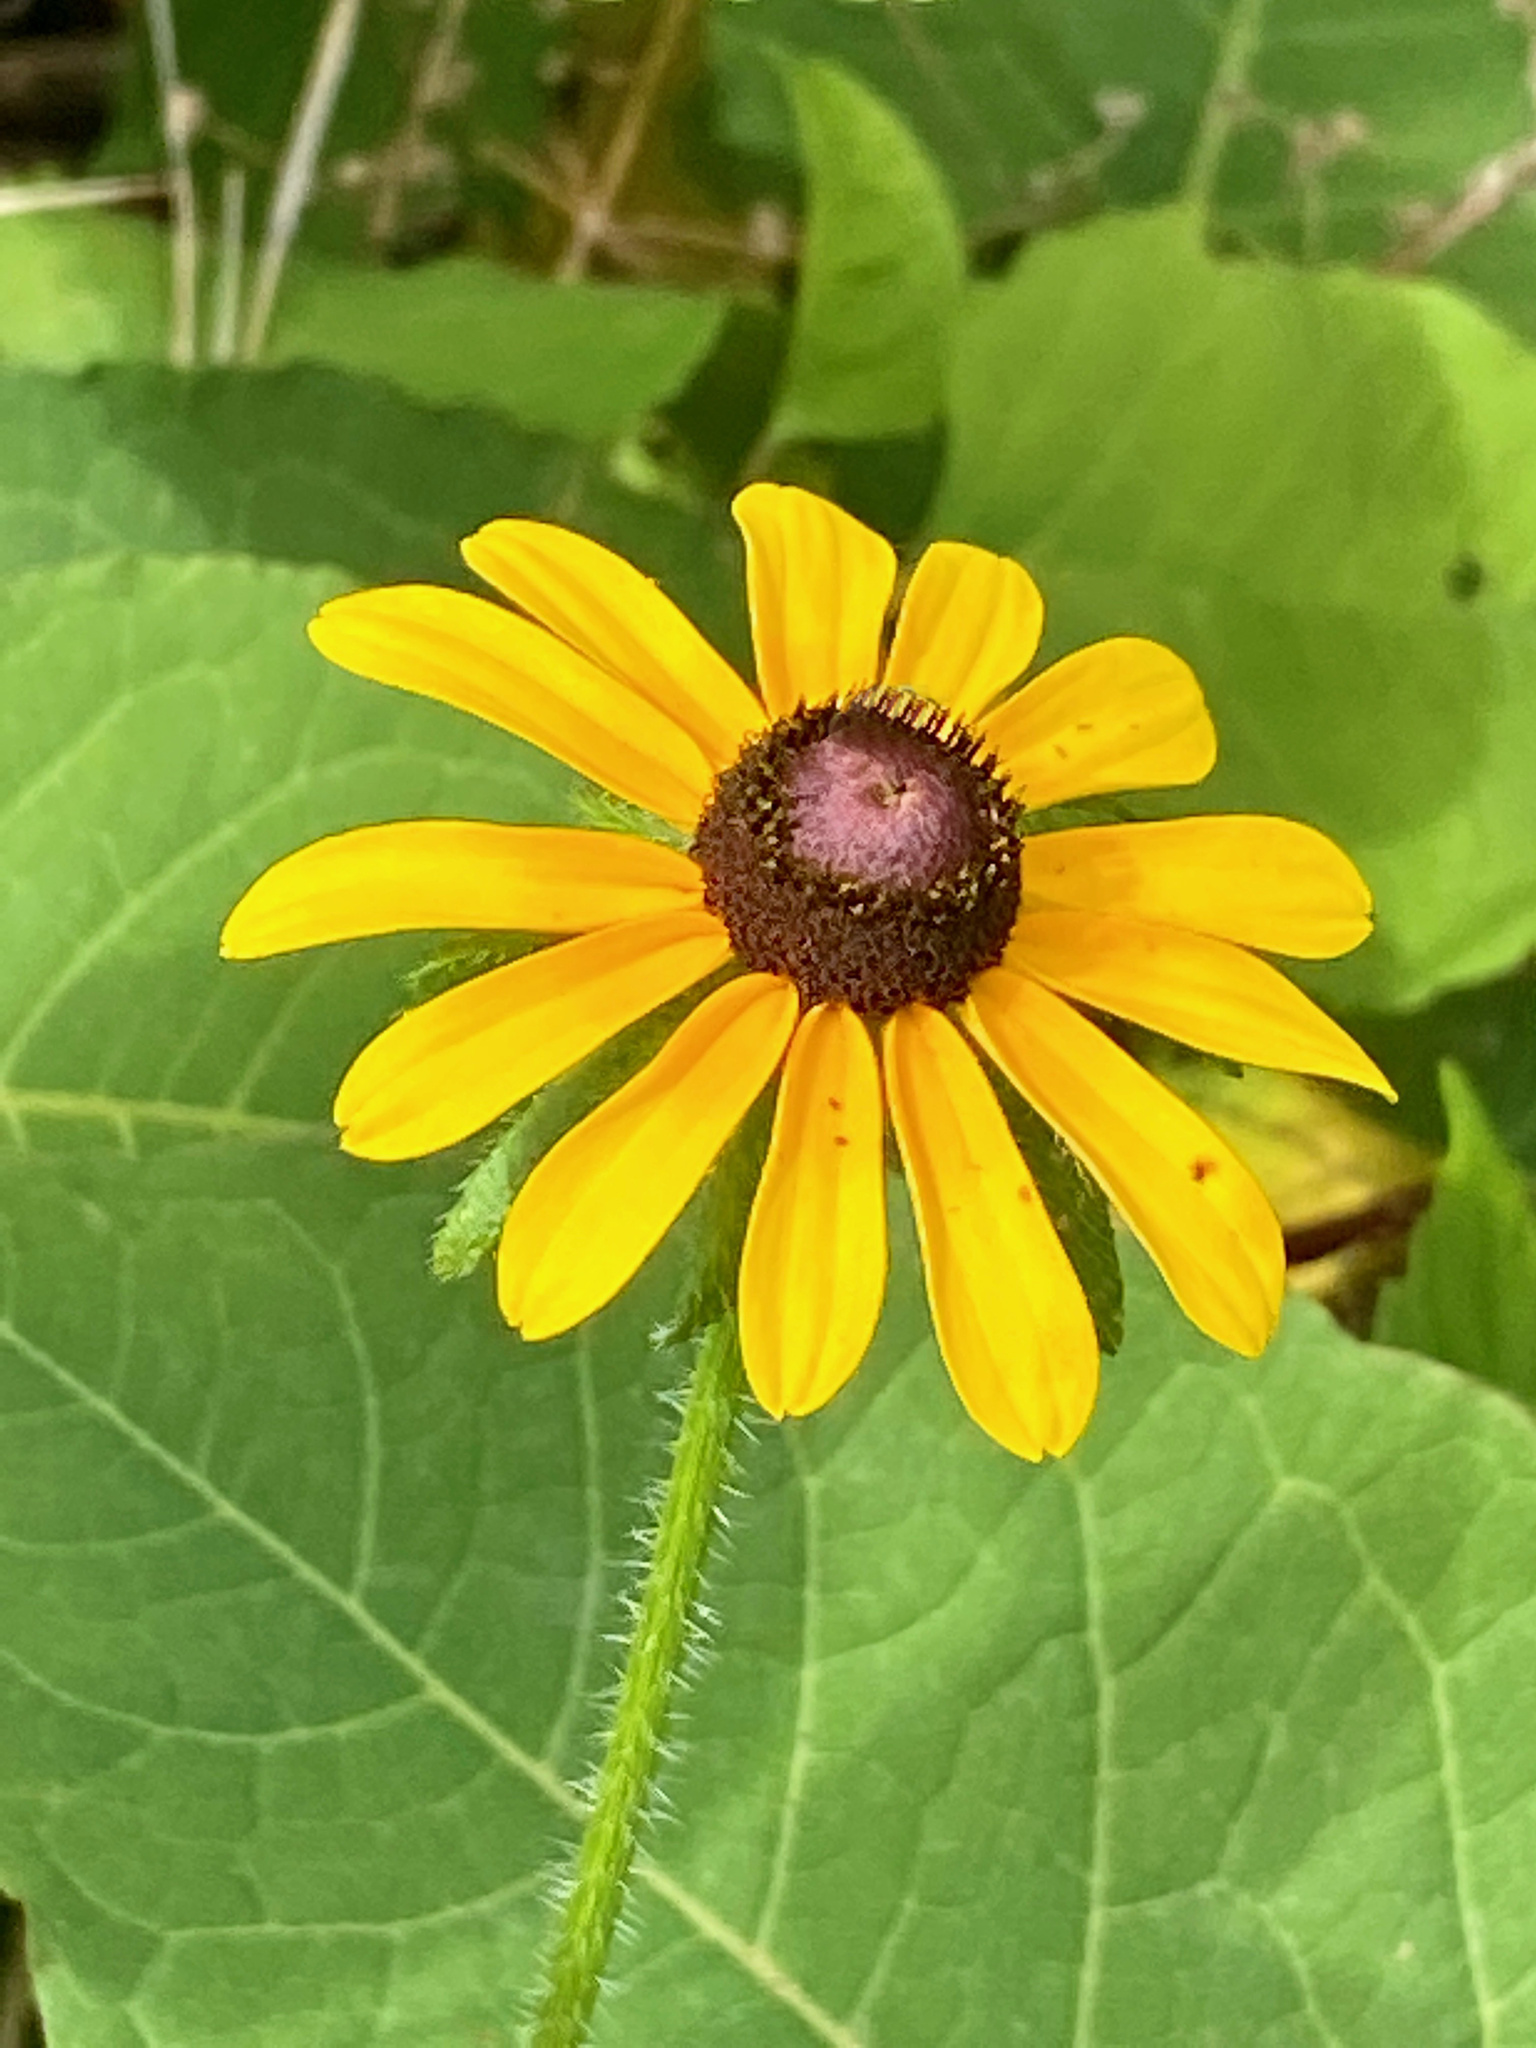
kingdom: Plantae
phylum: Tracheophyta
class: Magnoliopsida
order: Asterales
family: Asteraceae
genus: Rudbeckia
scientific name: Rudbeckia hirta
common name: Black-eyed-susan
